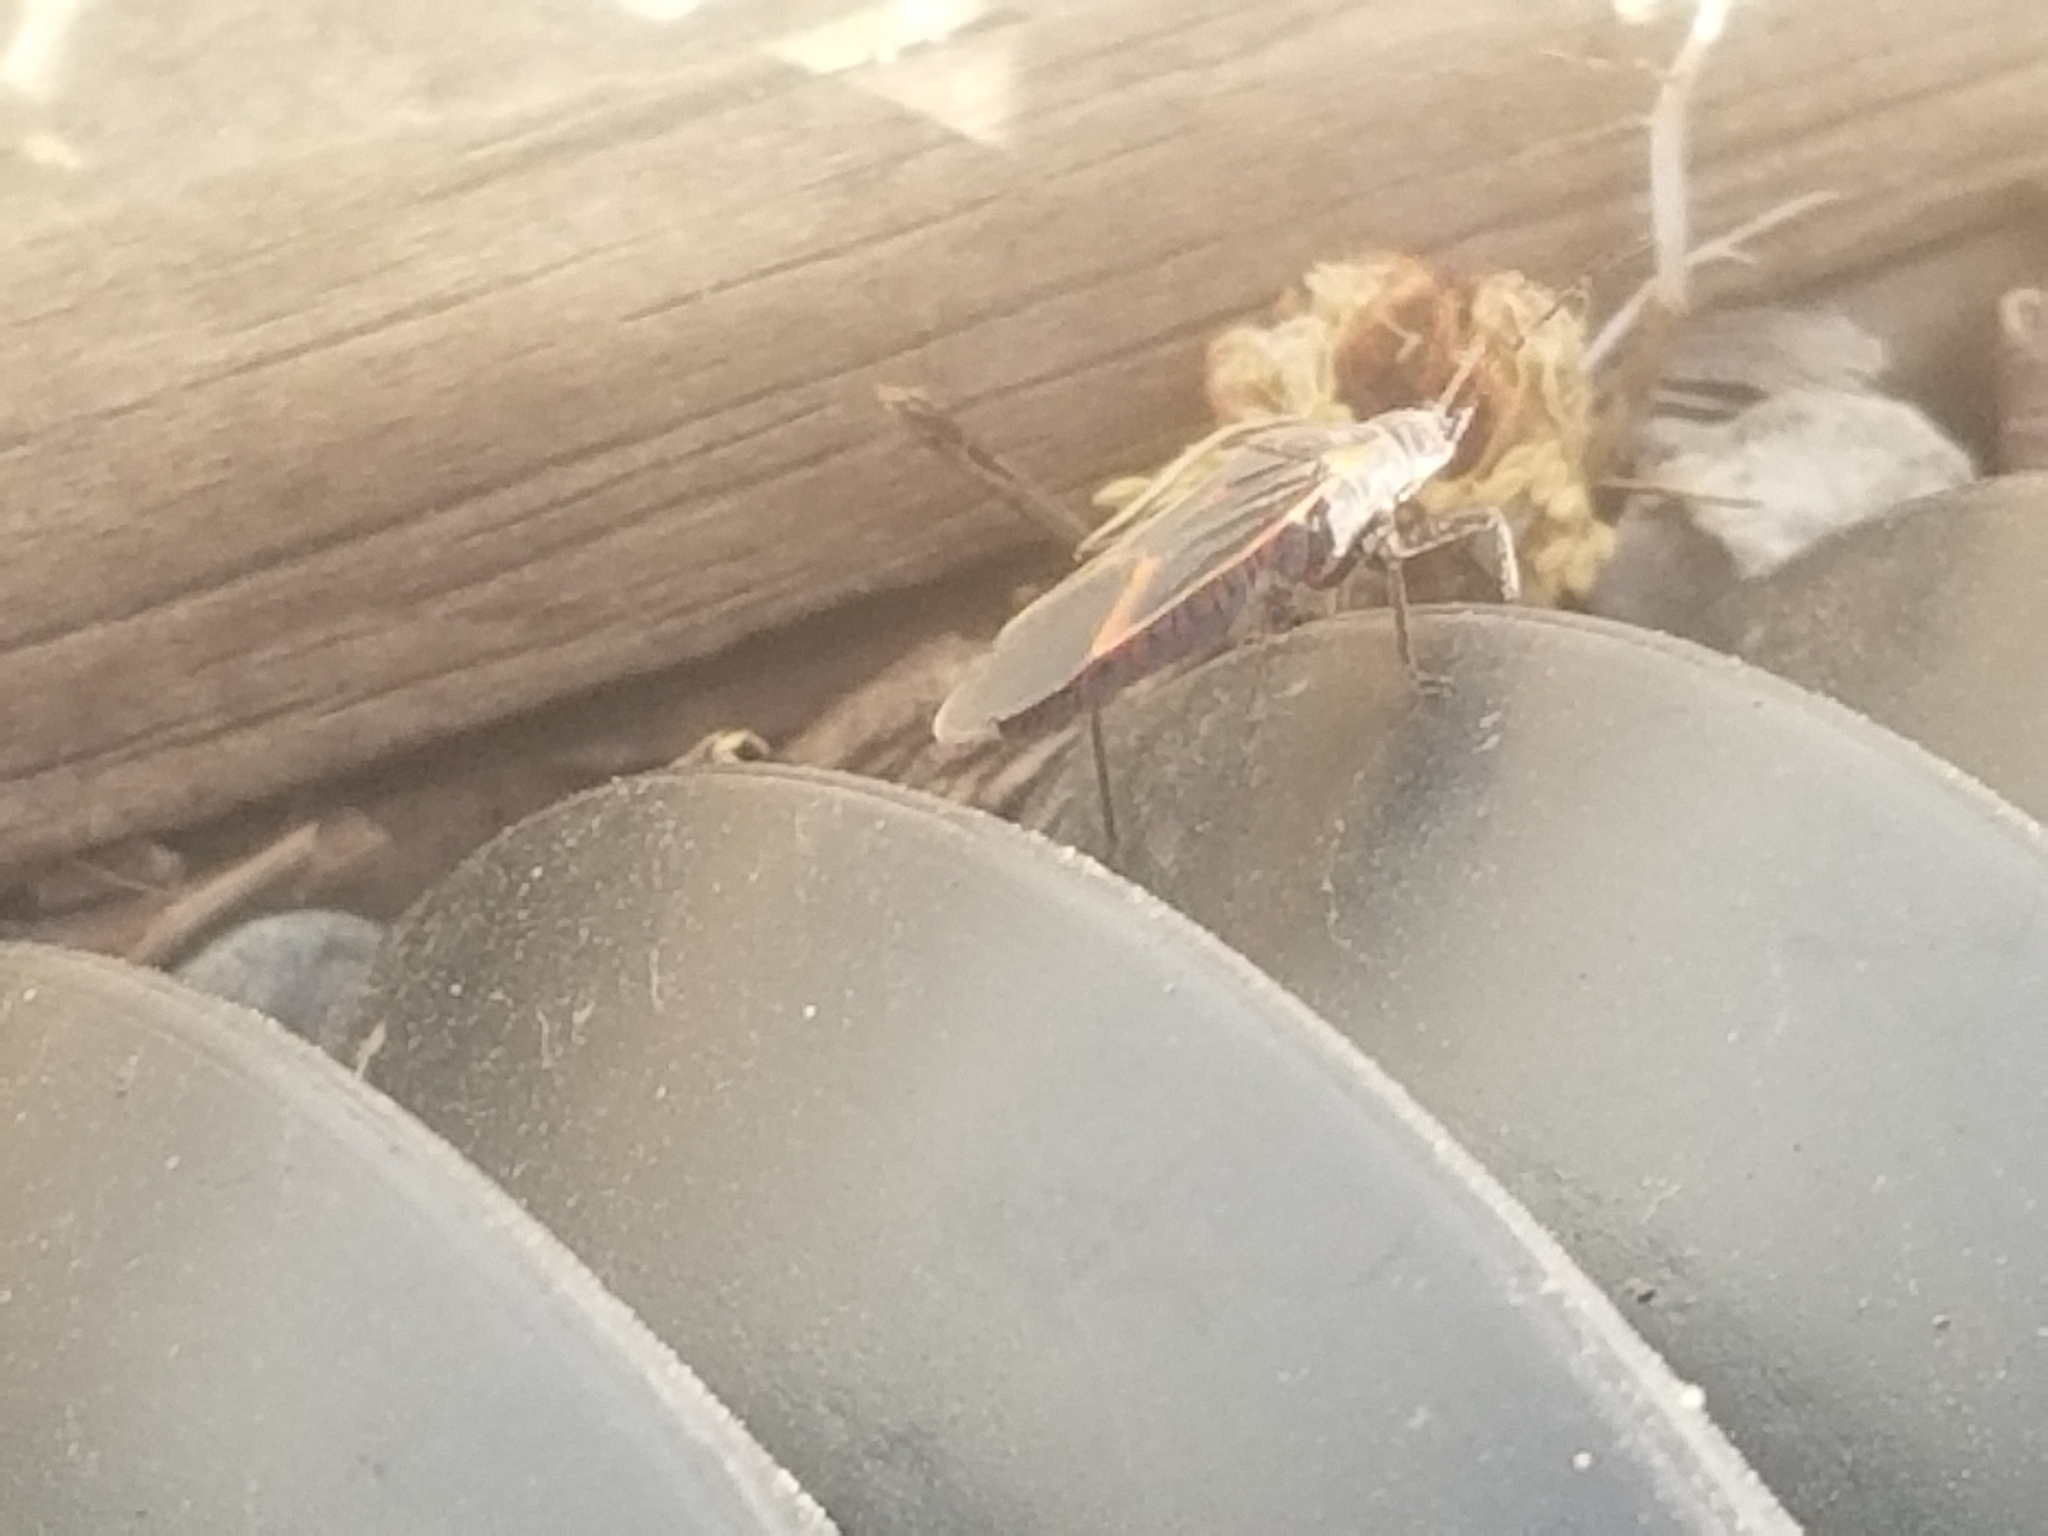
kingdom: Animalia
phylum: Arthropoda
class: Insecta
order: Hemiptera
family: Rhopalidae
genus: Boisea
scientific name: Boisea trivittata
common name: Boxelder bug
